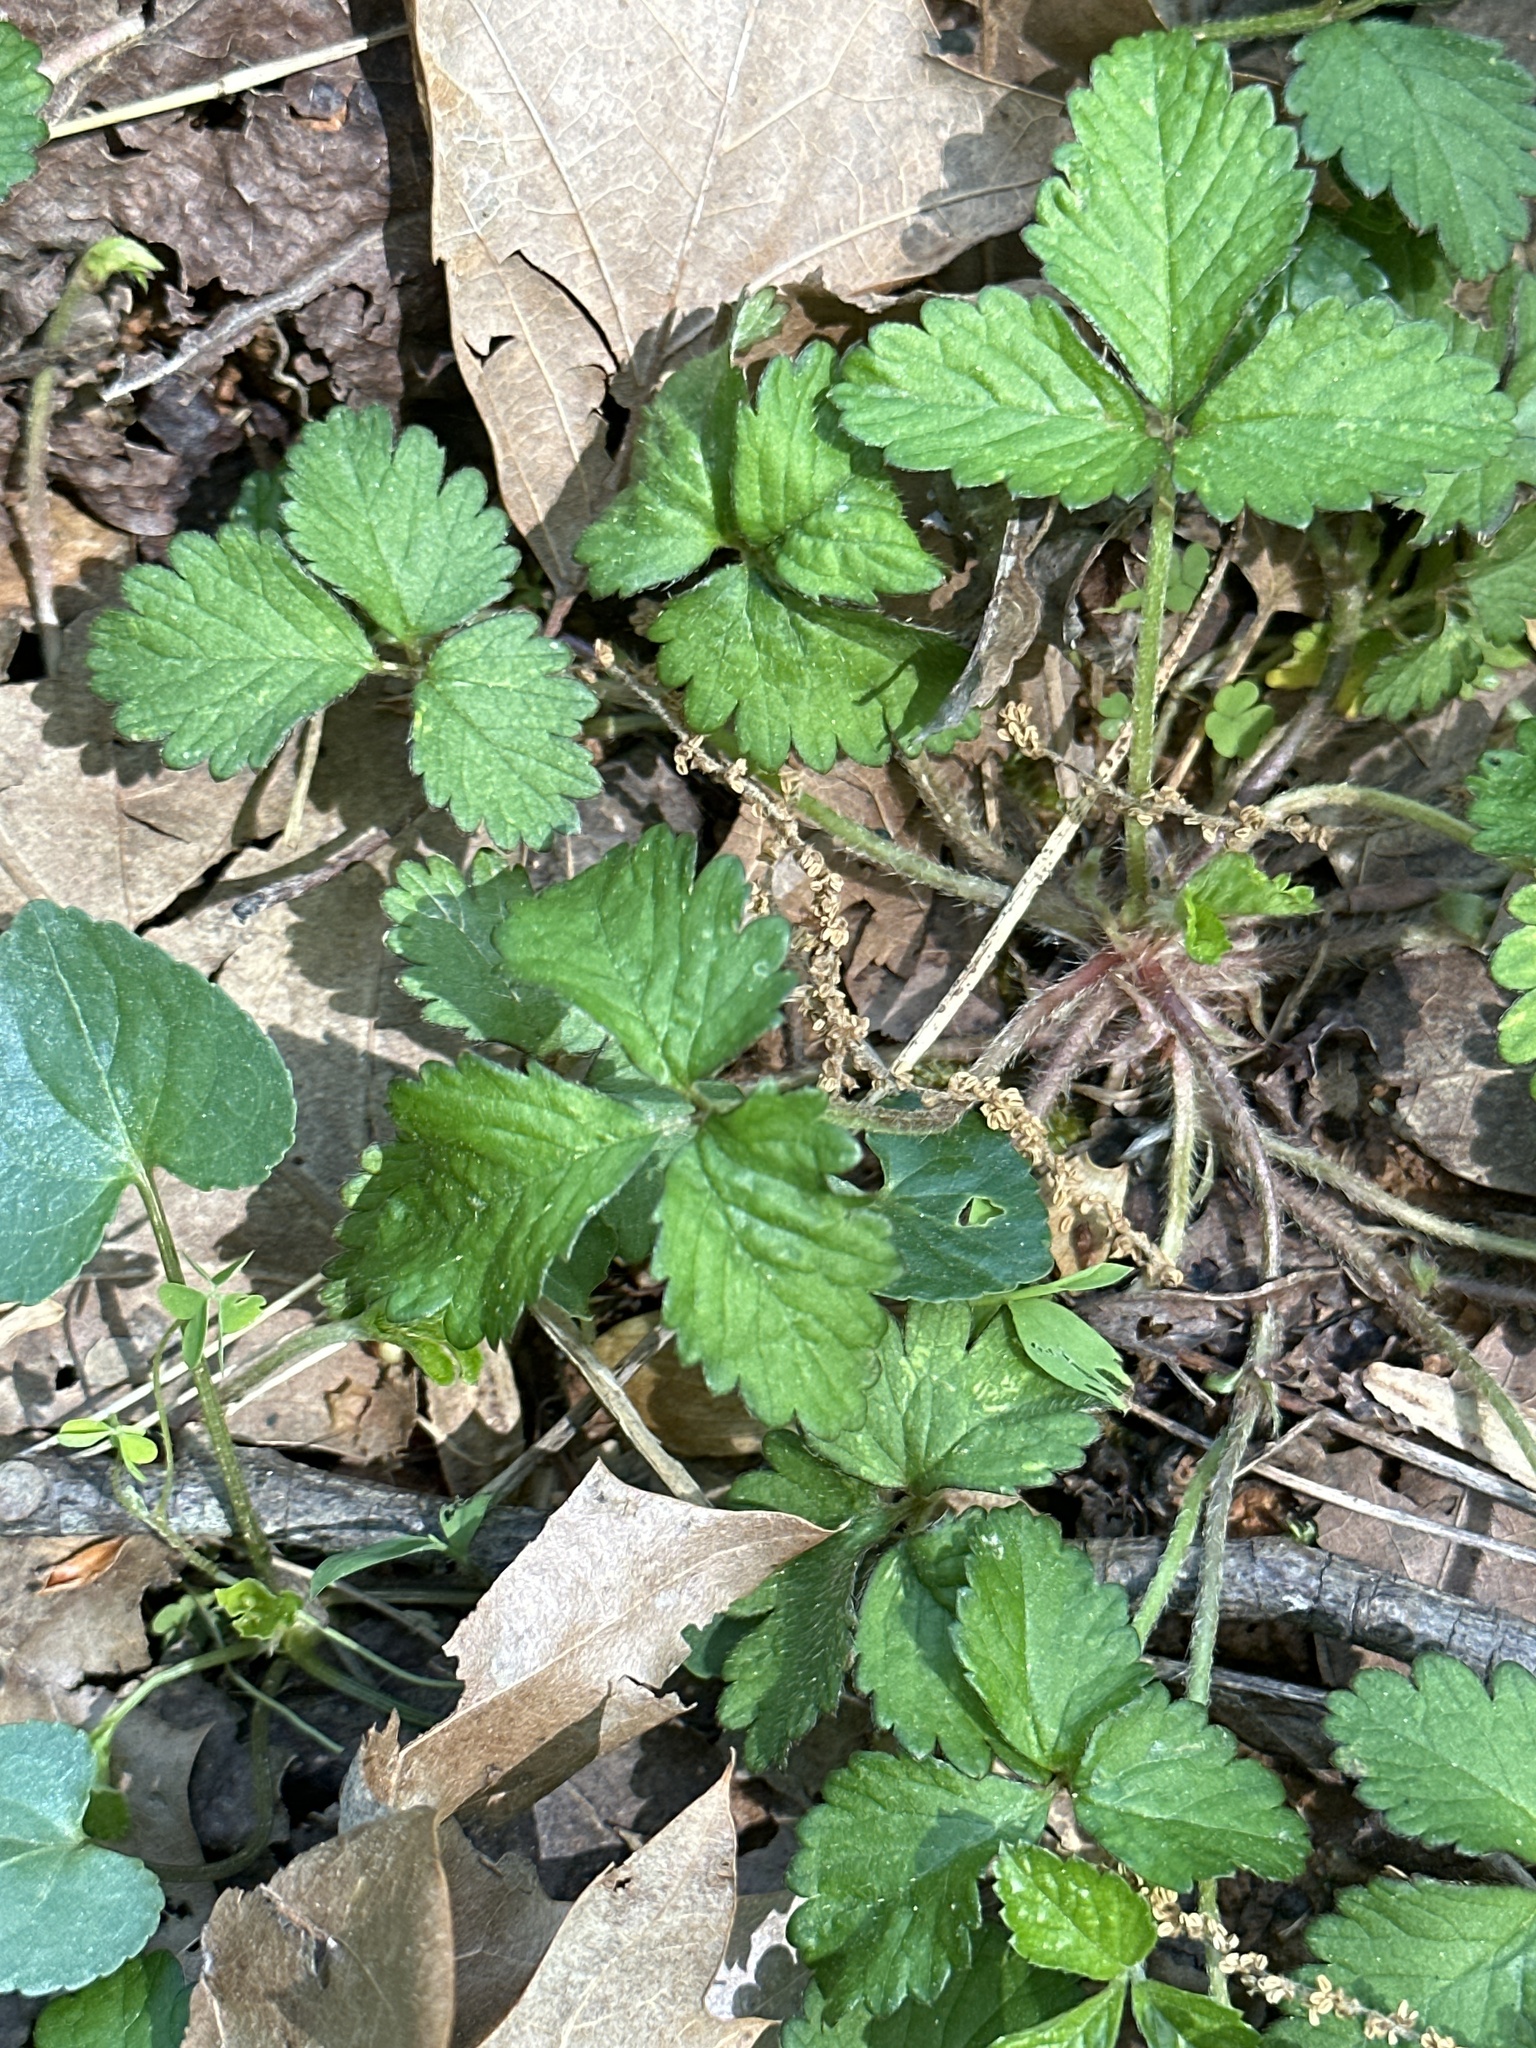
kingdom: Plantae
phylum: Tracheophyta
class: Magnoliopsida
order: Rosales
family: Rosaceae
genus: Potentilla
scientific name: Potentilla indica
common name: Yellow-flowered strawberry
